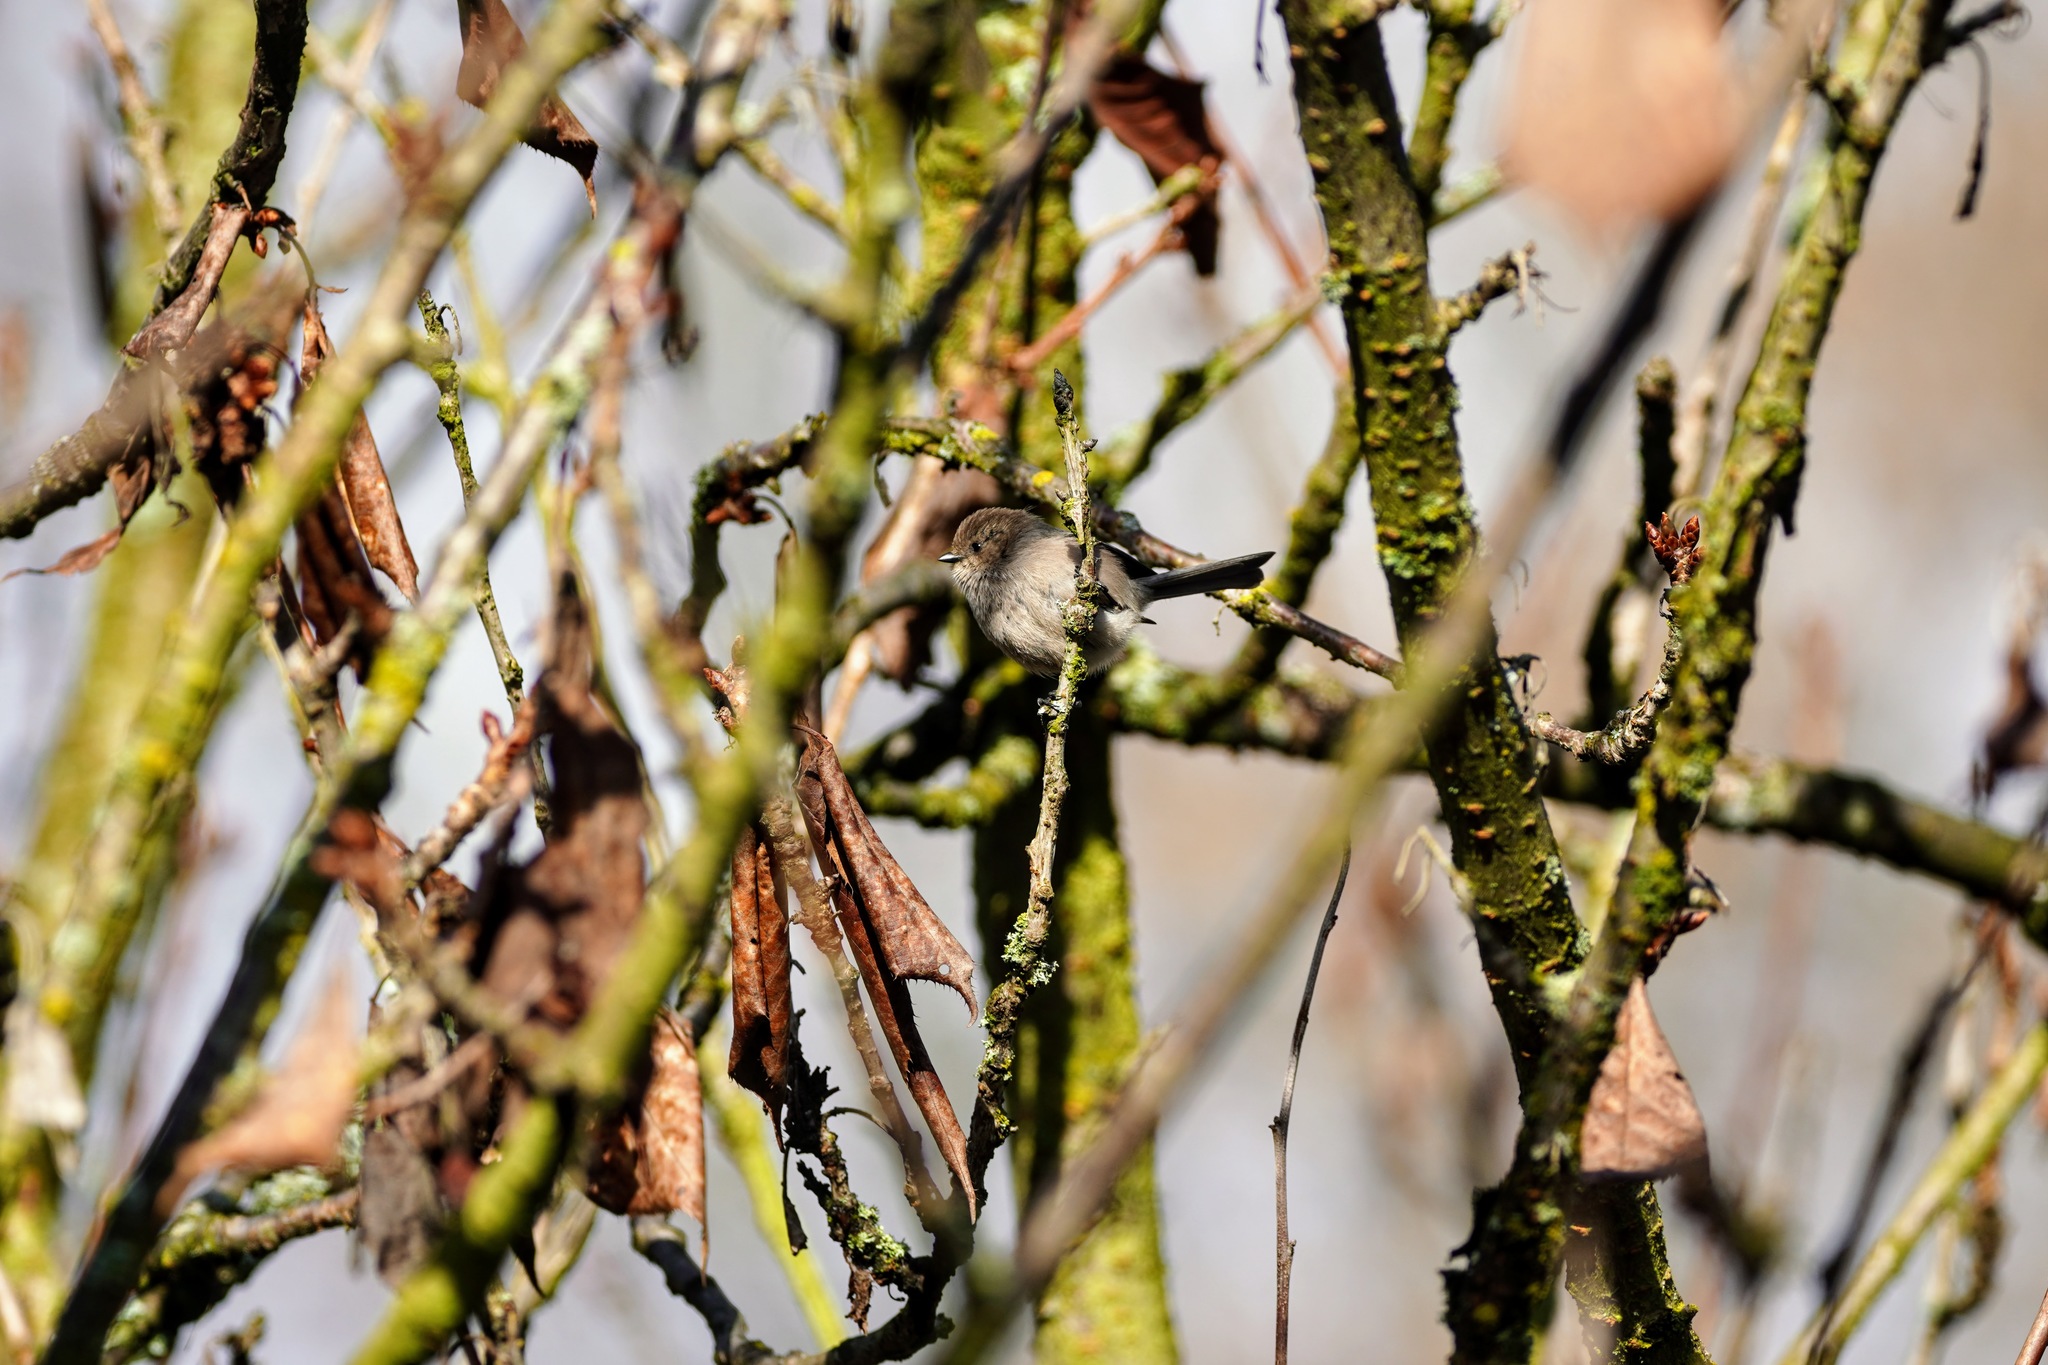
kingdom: Animalia
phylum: Chordata
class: Aves
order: Passeriformes
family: Aegithalidae
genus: Psaltriparus
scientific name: Psaltriparus minimus
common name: American bushtit
